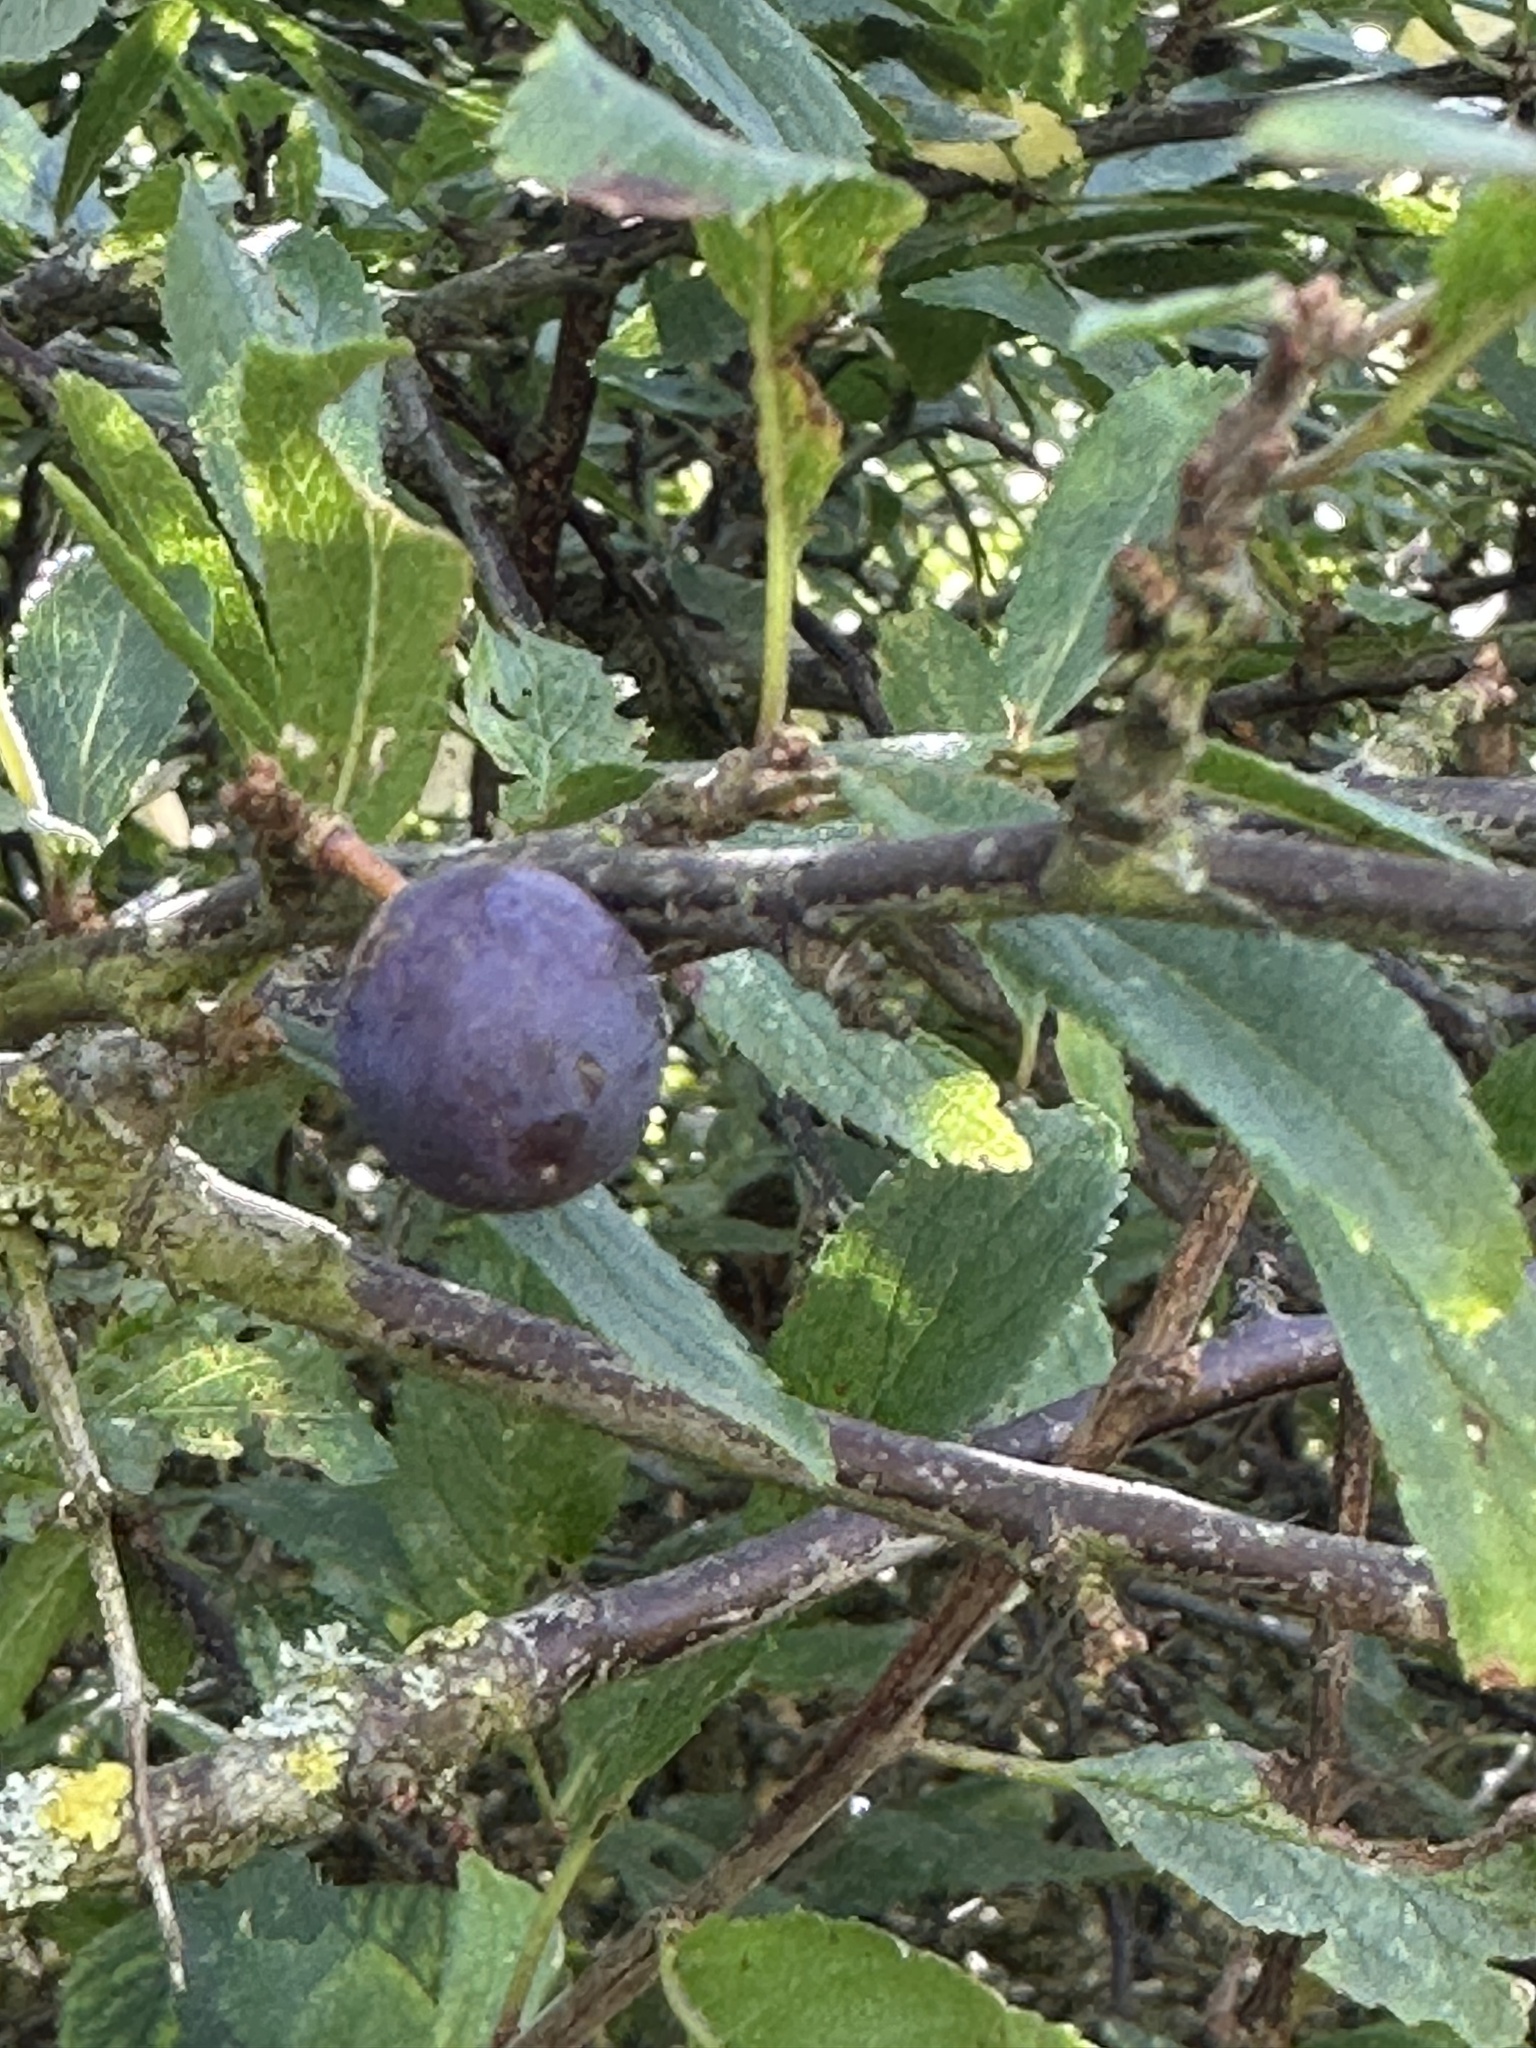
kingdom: Plantae
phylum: Tracheophyta
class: Magnoliopsida
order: Rosales
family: Rosaceae
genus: Prunus
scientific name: Prunus spinosa
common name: Blackthorn
